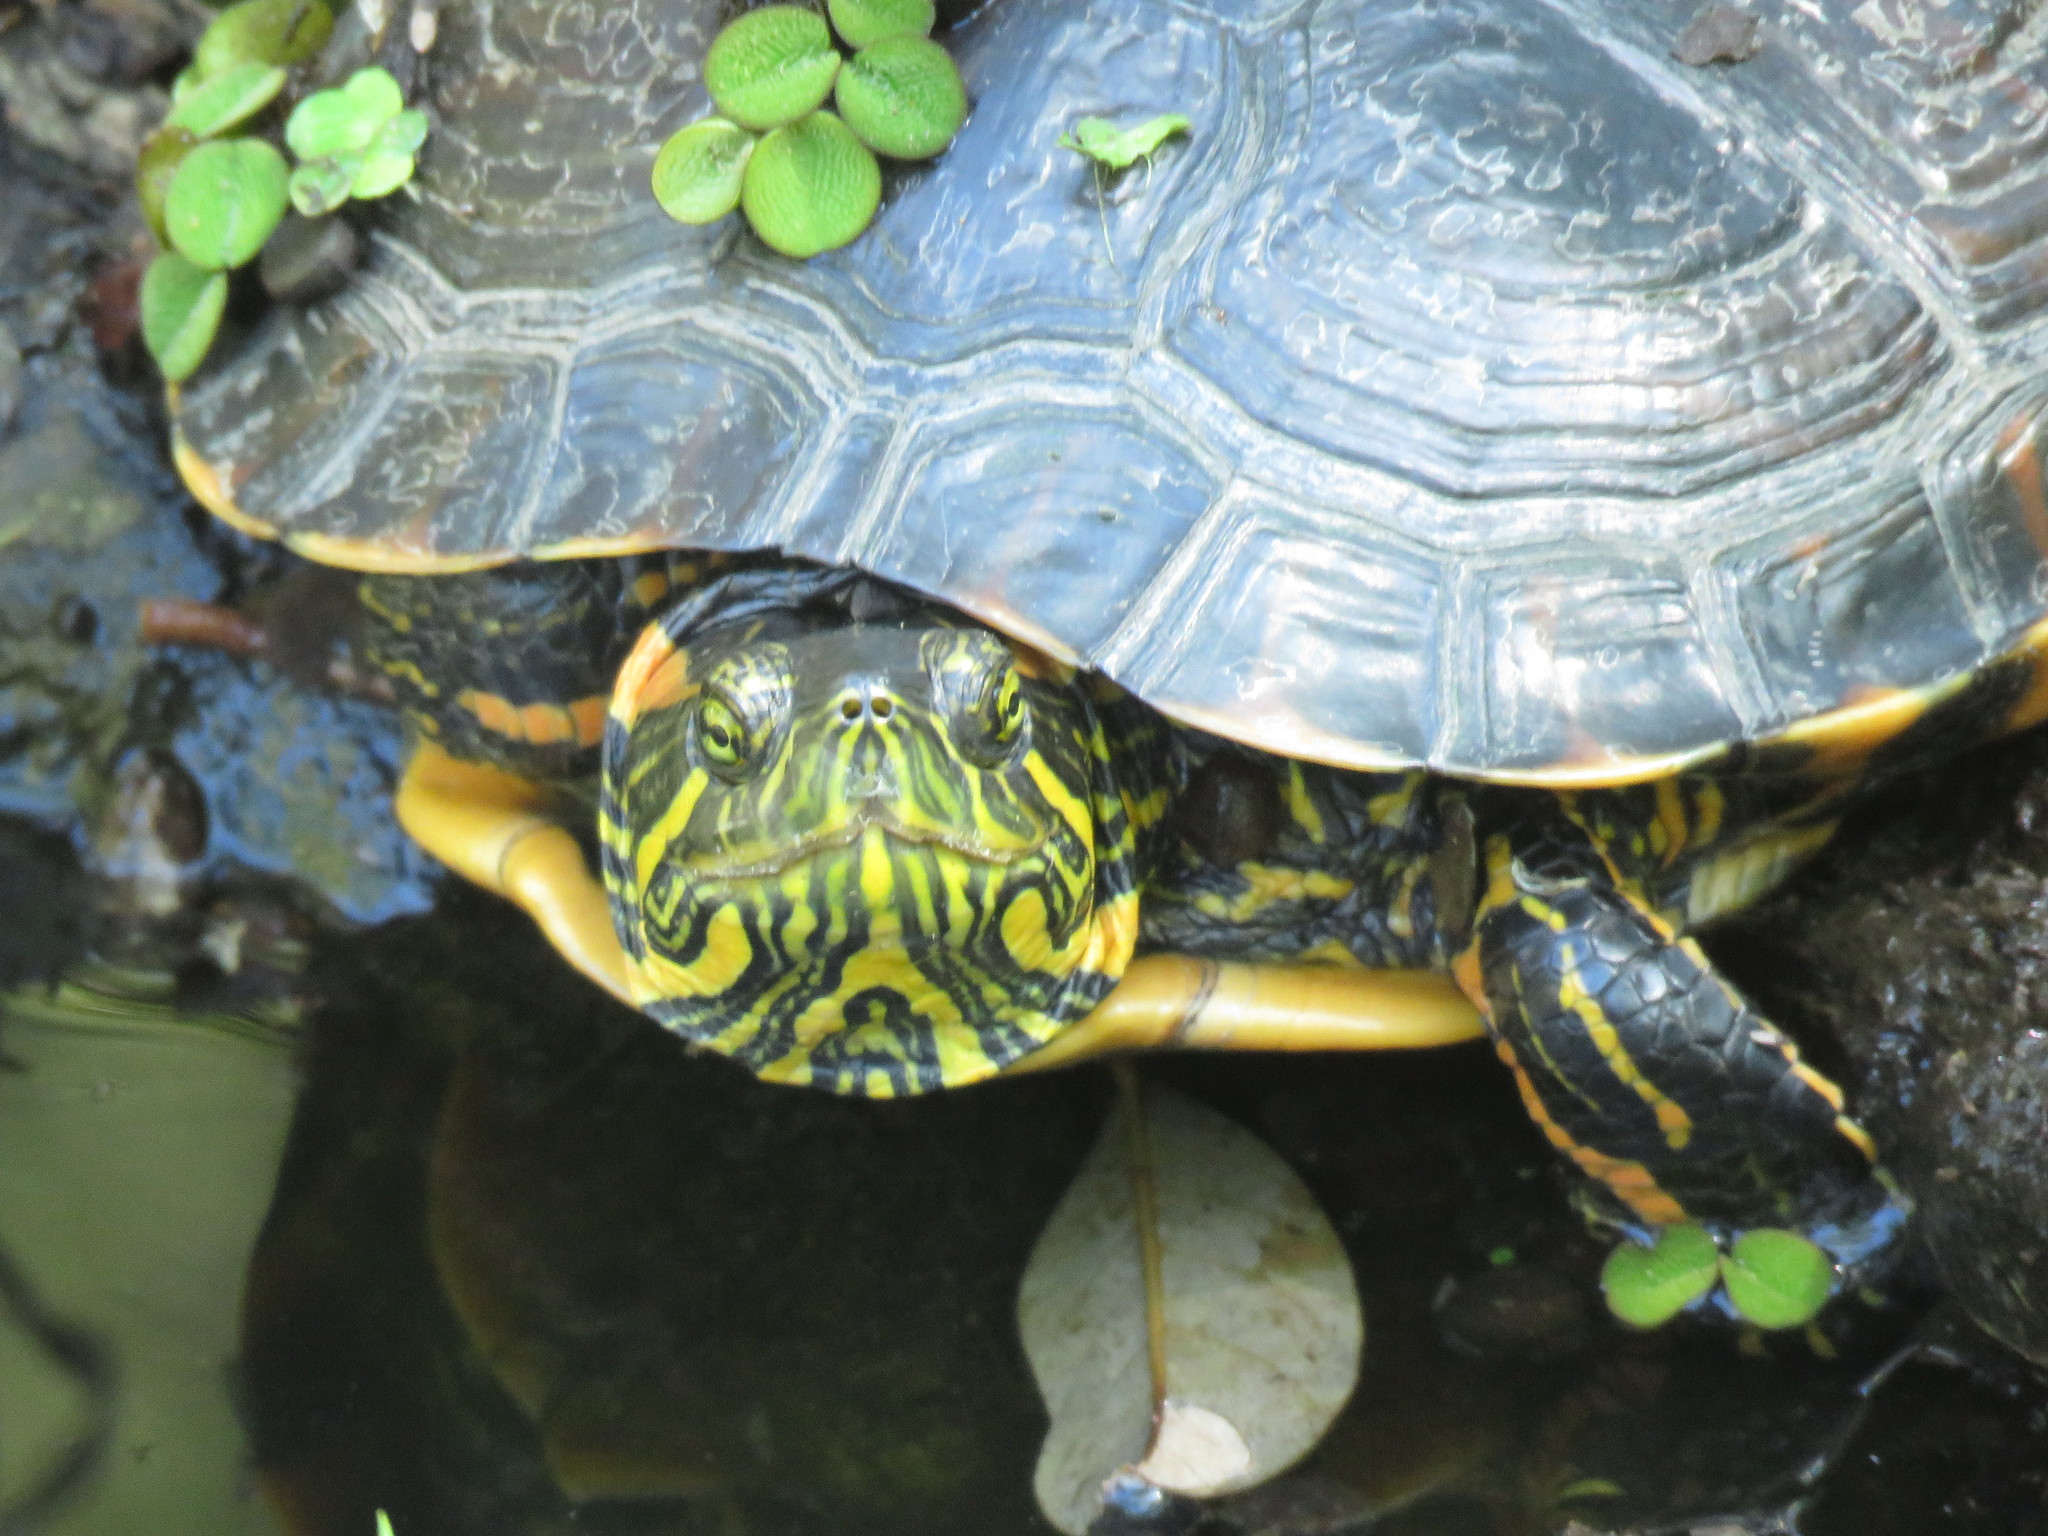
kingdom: Animalia
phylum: Chordata
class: Testudines
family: Emydidae
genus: Trachemys
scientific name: Trachemys dorbigni
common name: Black-bellied slider
